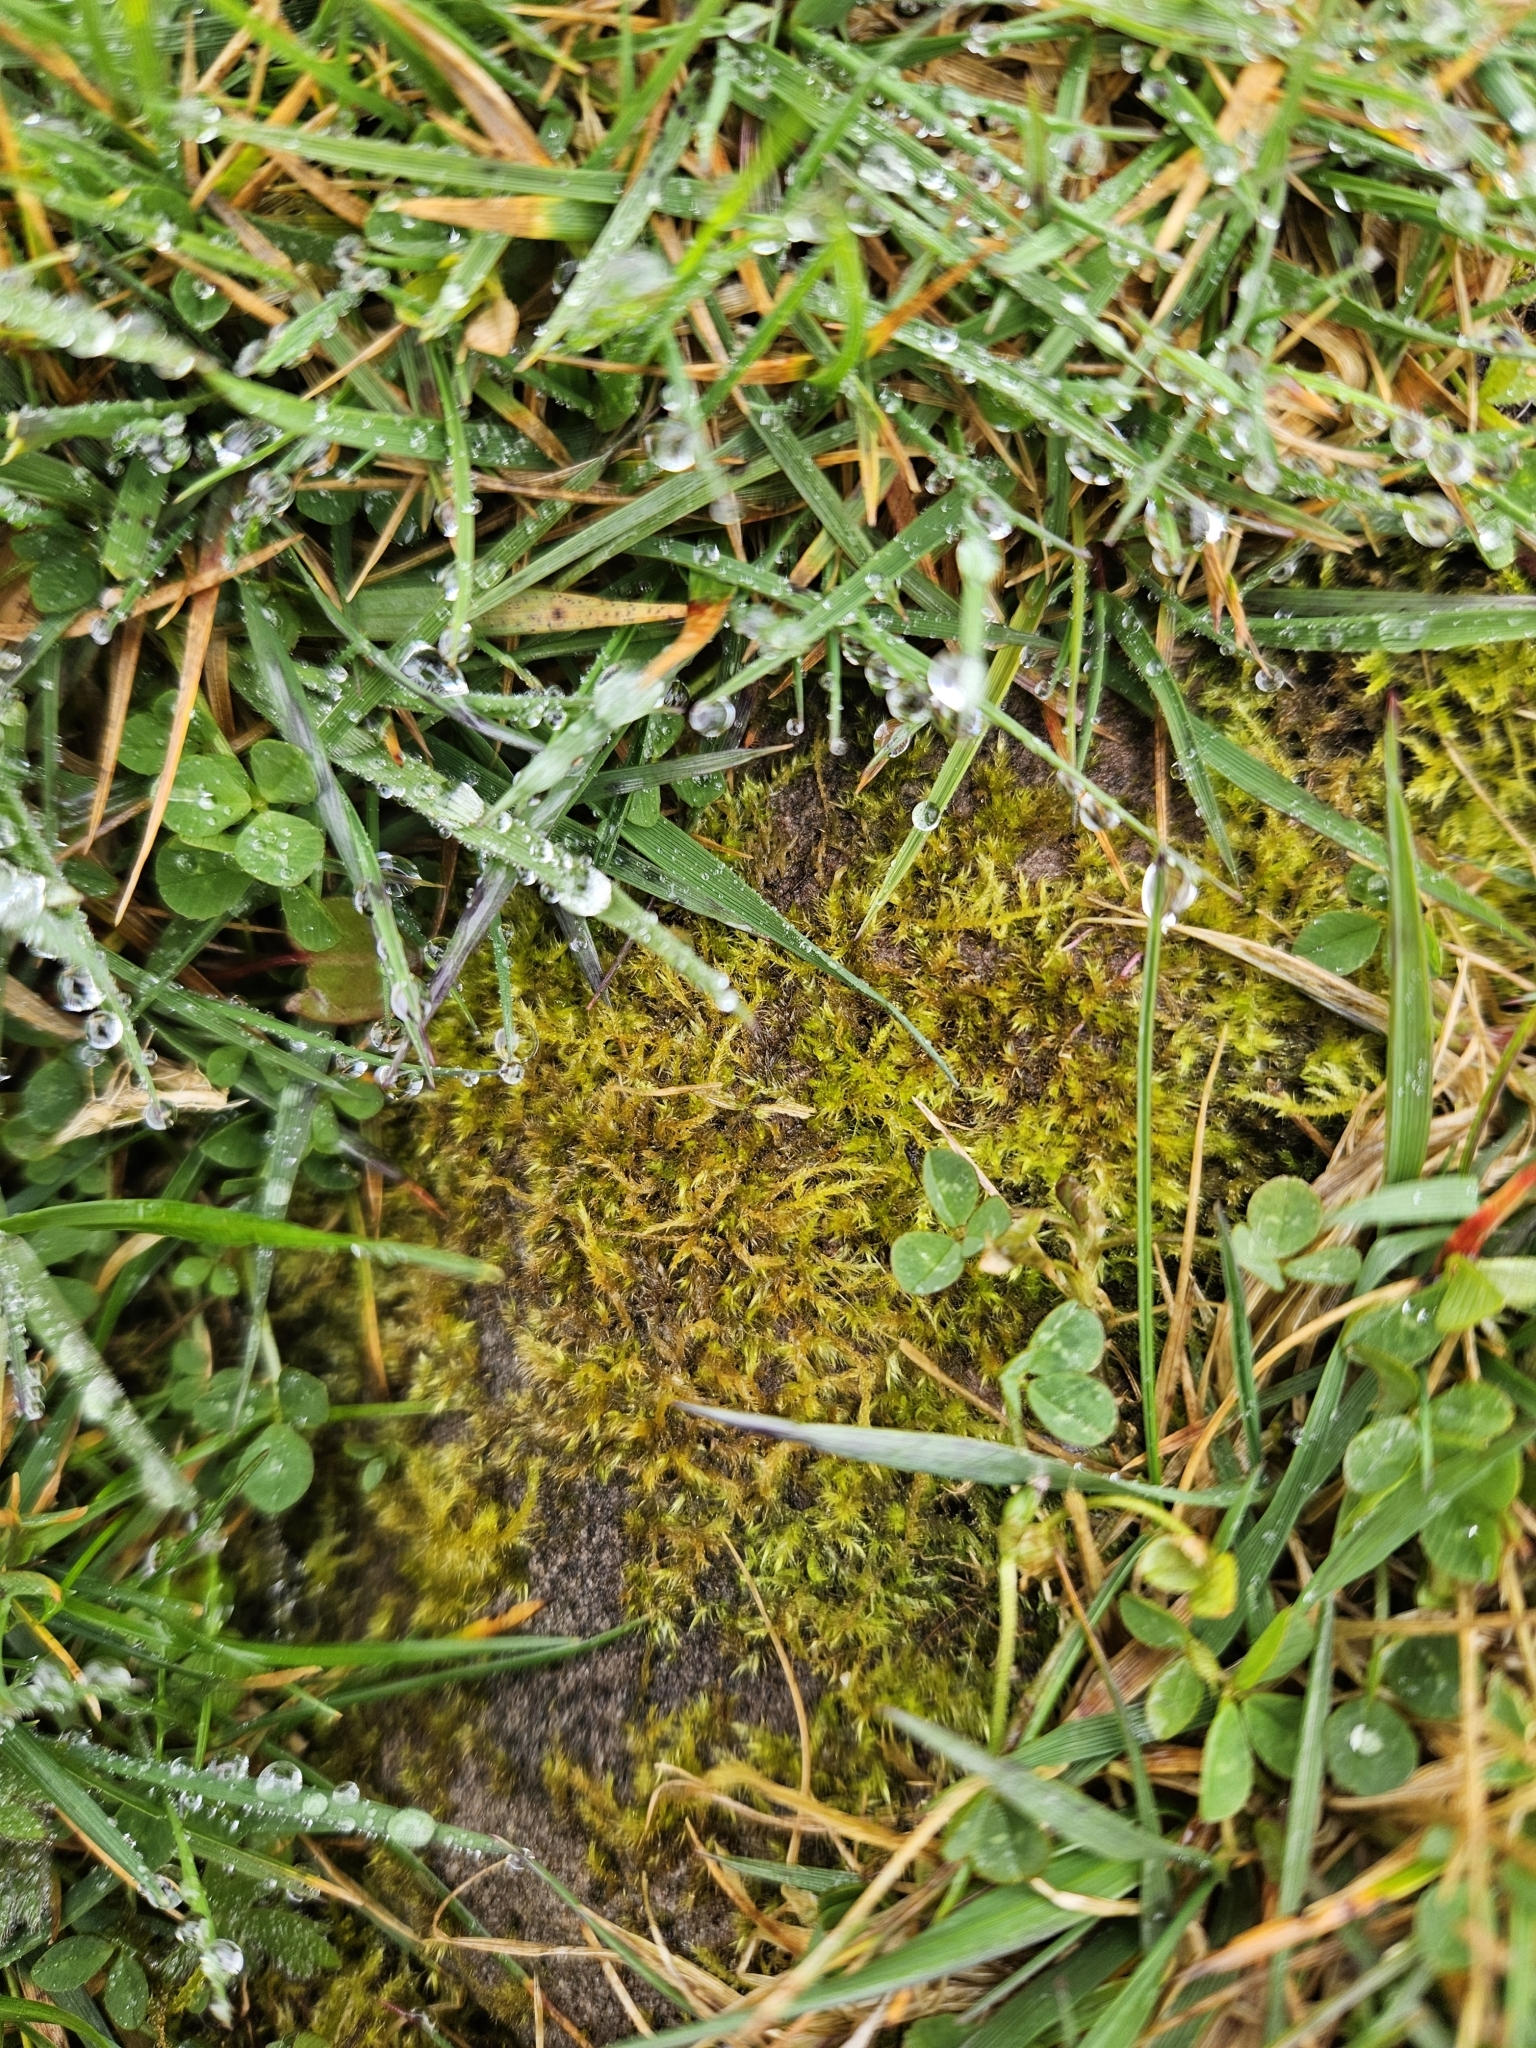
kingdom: Plantae
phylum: Bryophyta
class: Bryopsida
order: Hypnales
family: Brachytheciaceae
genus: Sciuro-hypnum
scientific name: Sciuro-hypnum populeum
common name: Matted feather-moss
